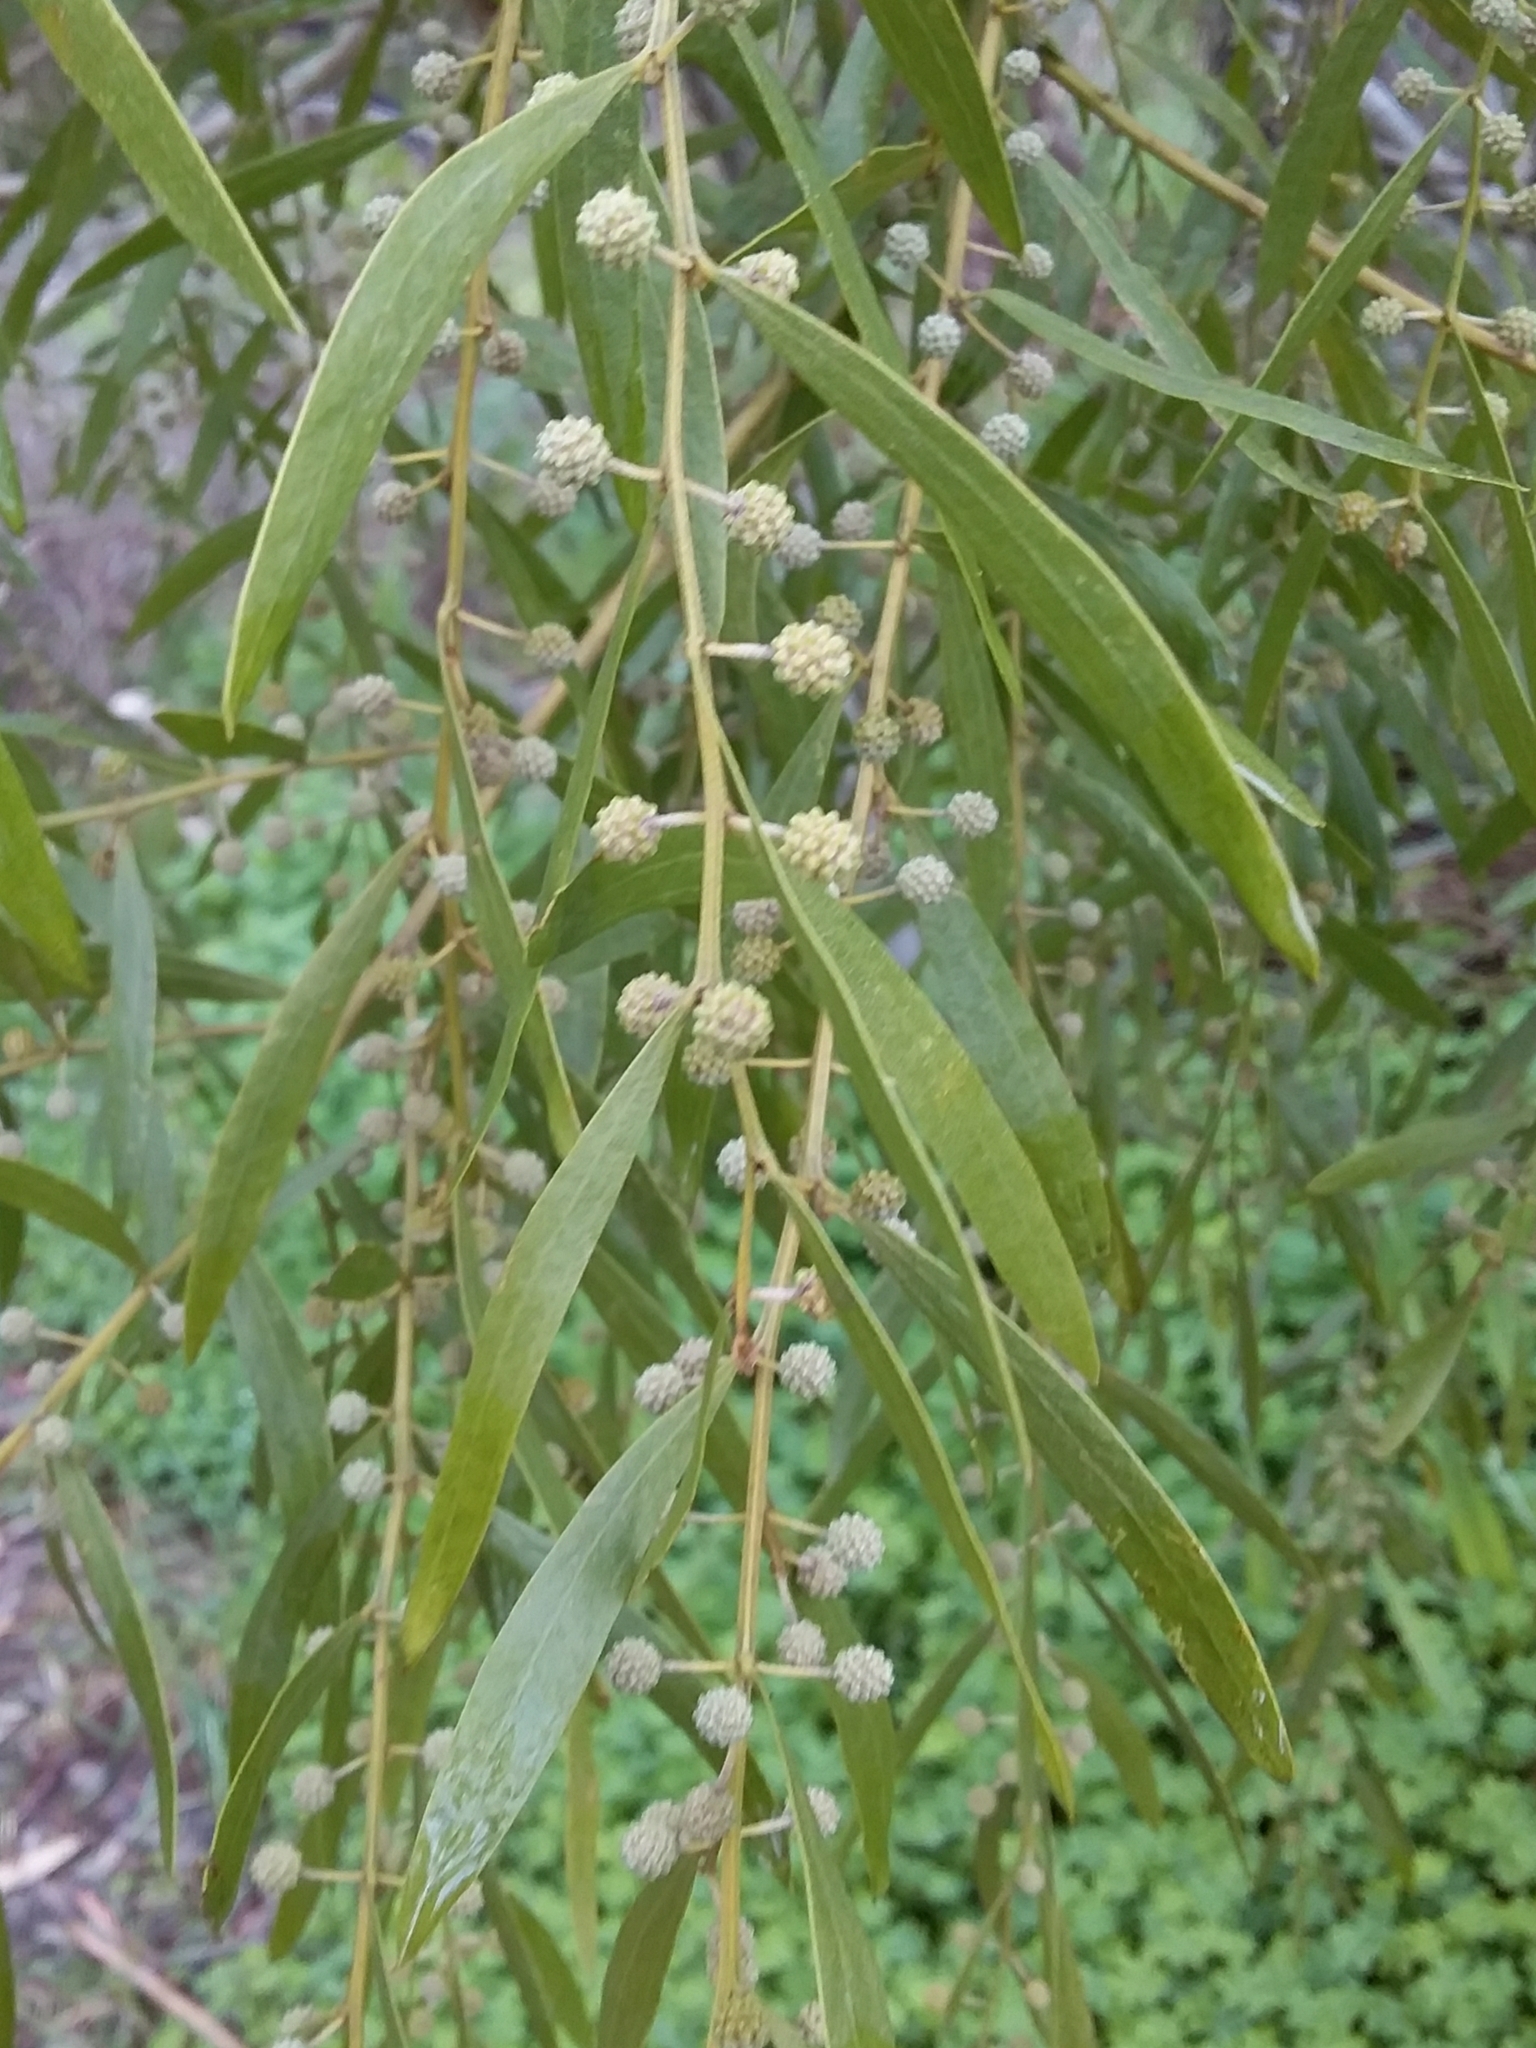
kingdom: Plantae
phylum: Tracheophyta
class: Magnoliopsida
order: Fabales
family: Fabaceae
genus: Acacia
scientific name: Acacia verniciflua
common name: Varnish wattle
